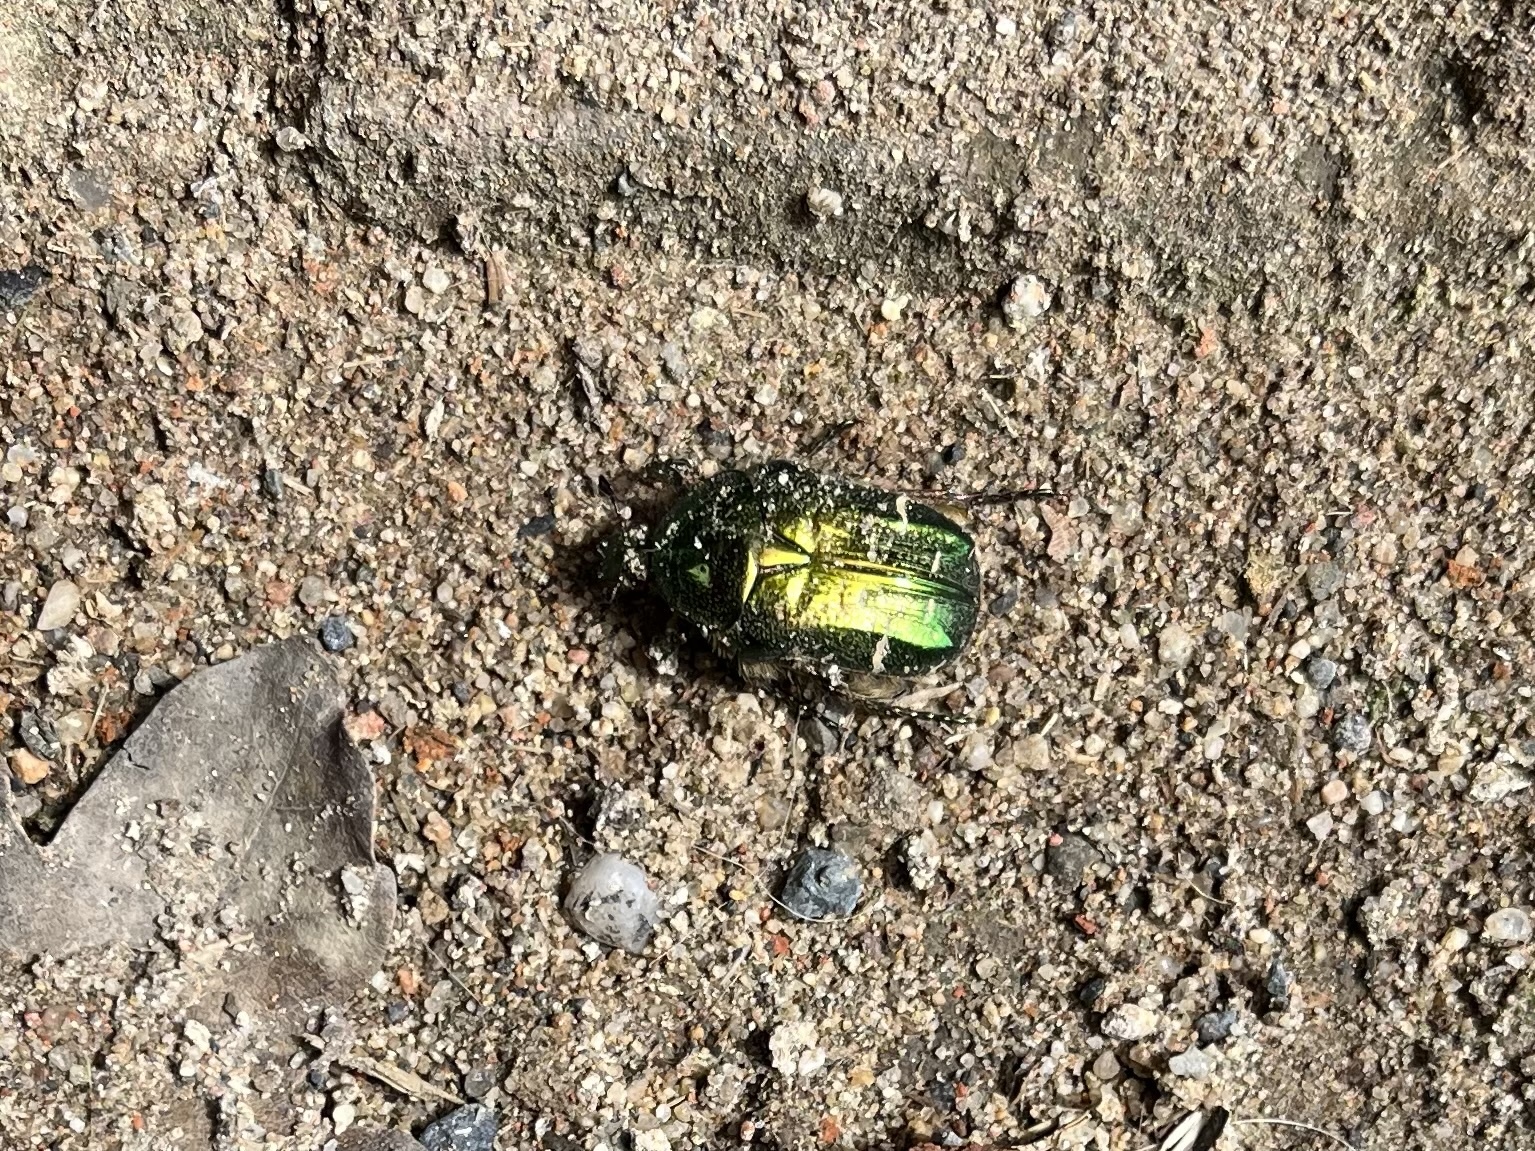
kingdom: Animalia
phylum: Arthropoda
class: Insecta
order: Coleoptera
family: Scarabaeidae
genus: Cetonia
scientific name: Cetonia aurata
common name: Rose chafer
